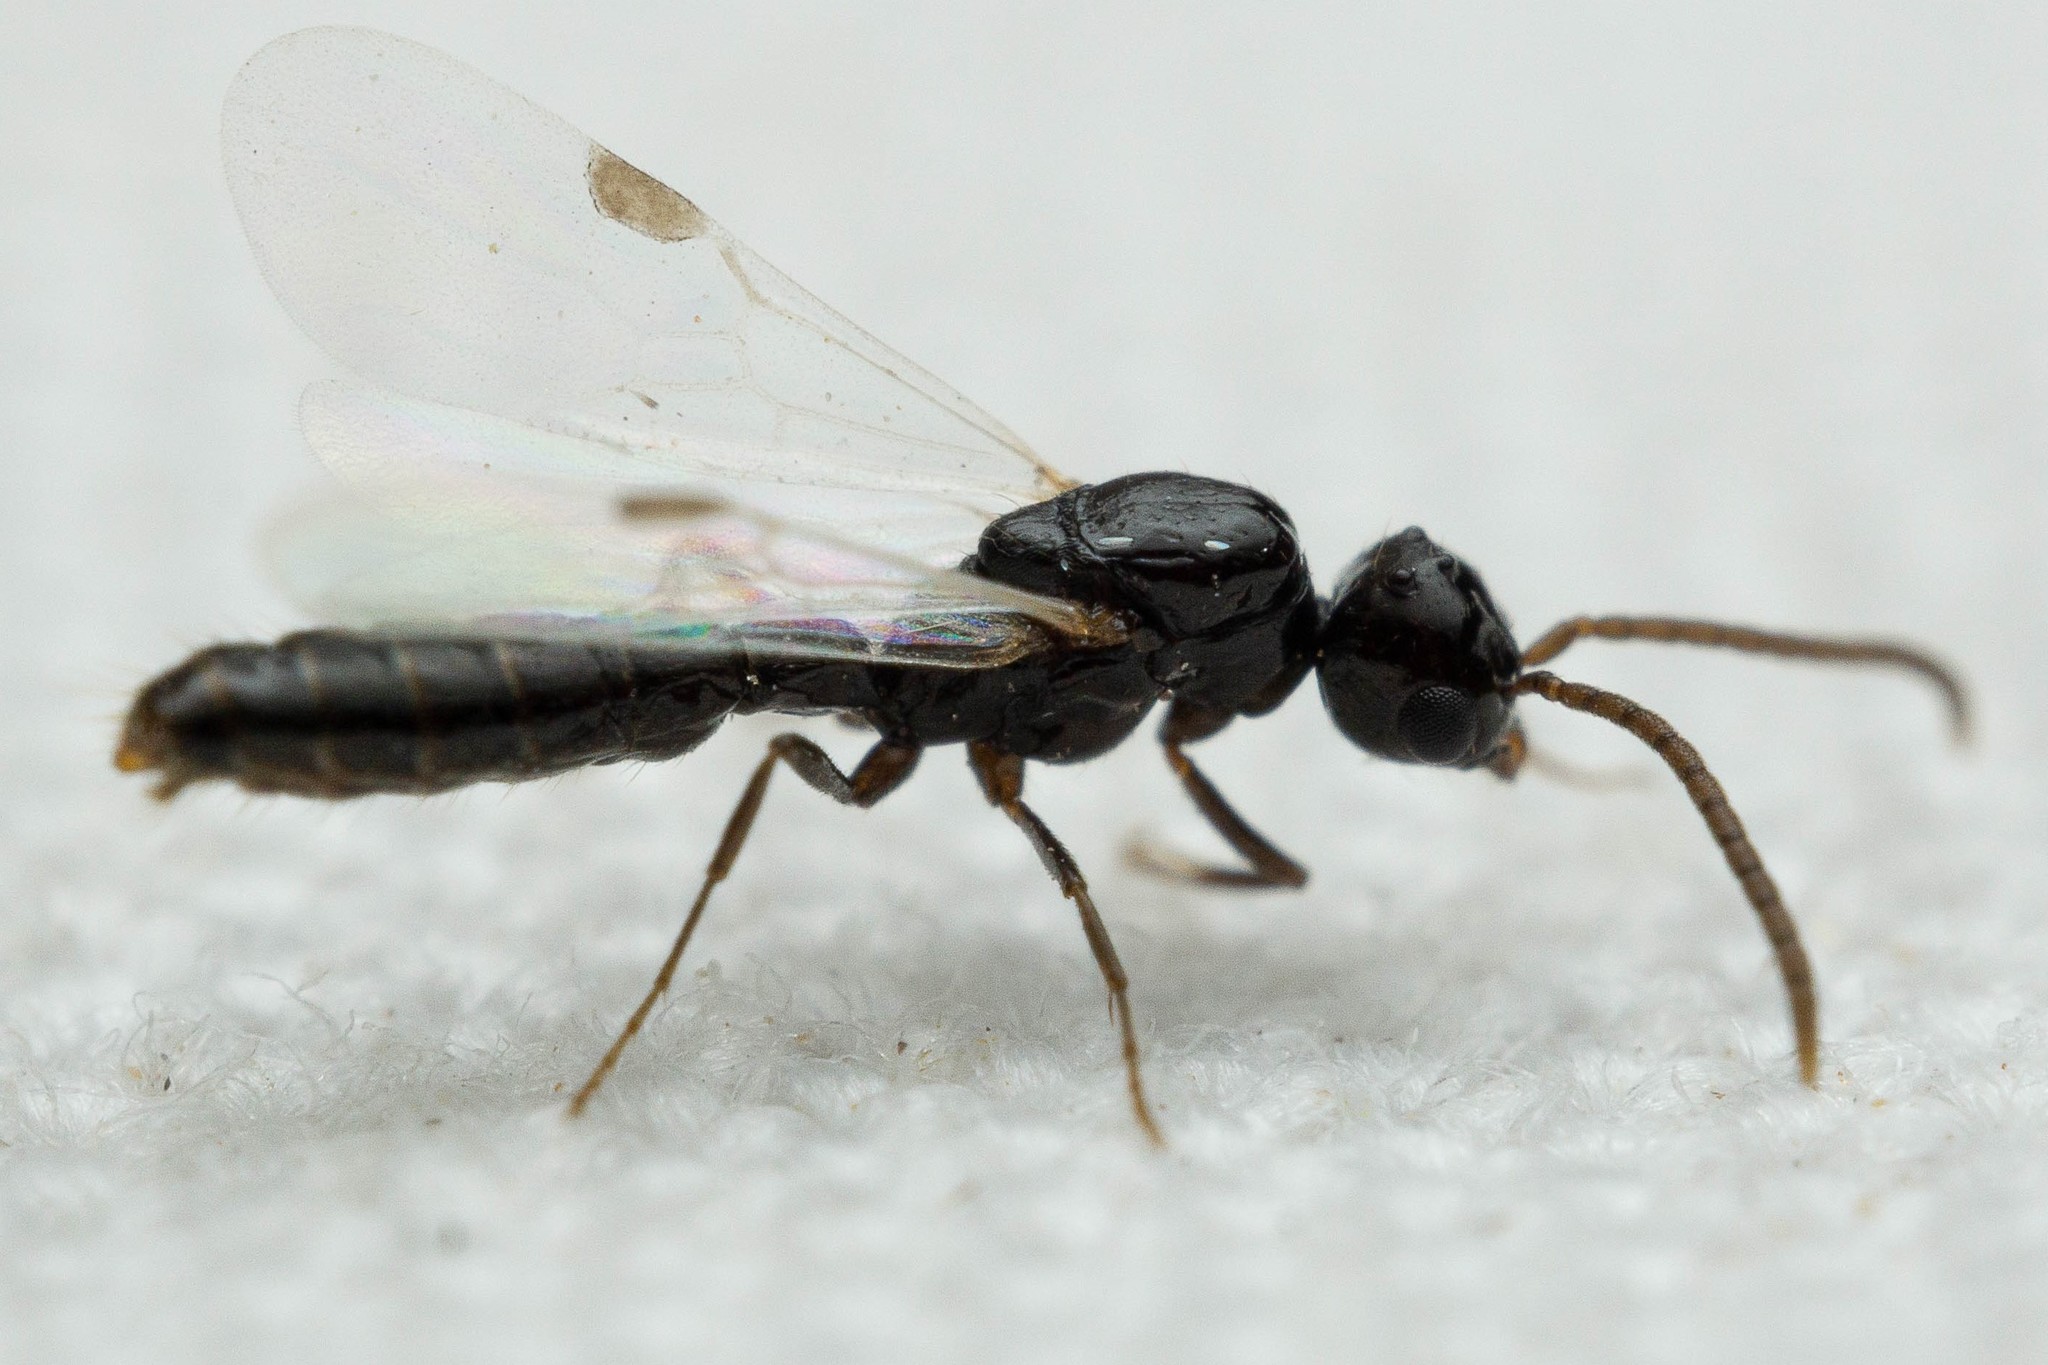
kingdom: Animalia
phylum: Arthropoda
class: Insecta
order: Hymenoptera
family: Formicidae
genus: Acanthostichus
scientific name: Acanthostichus
